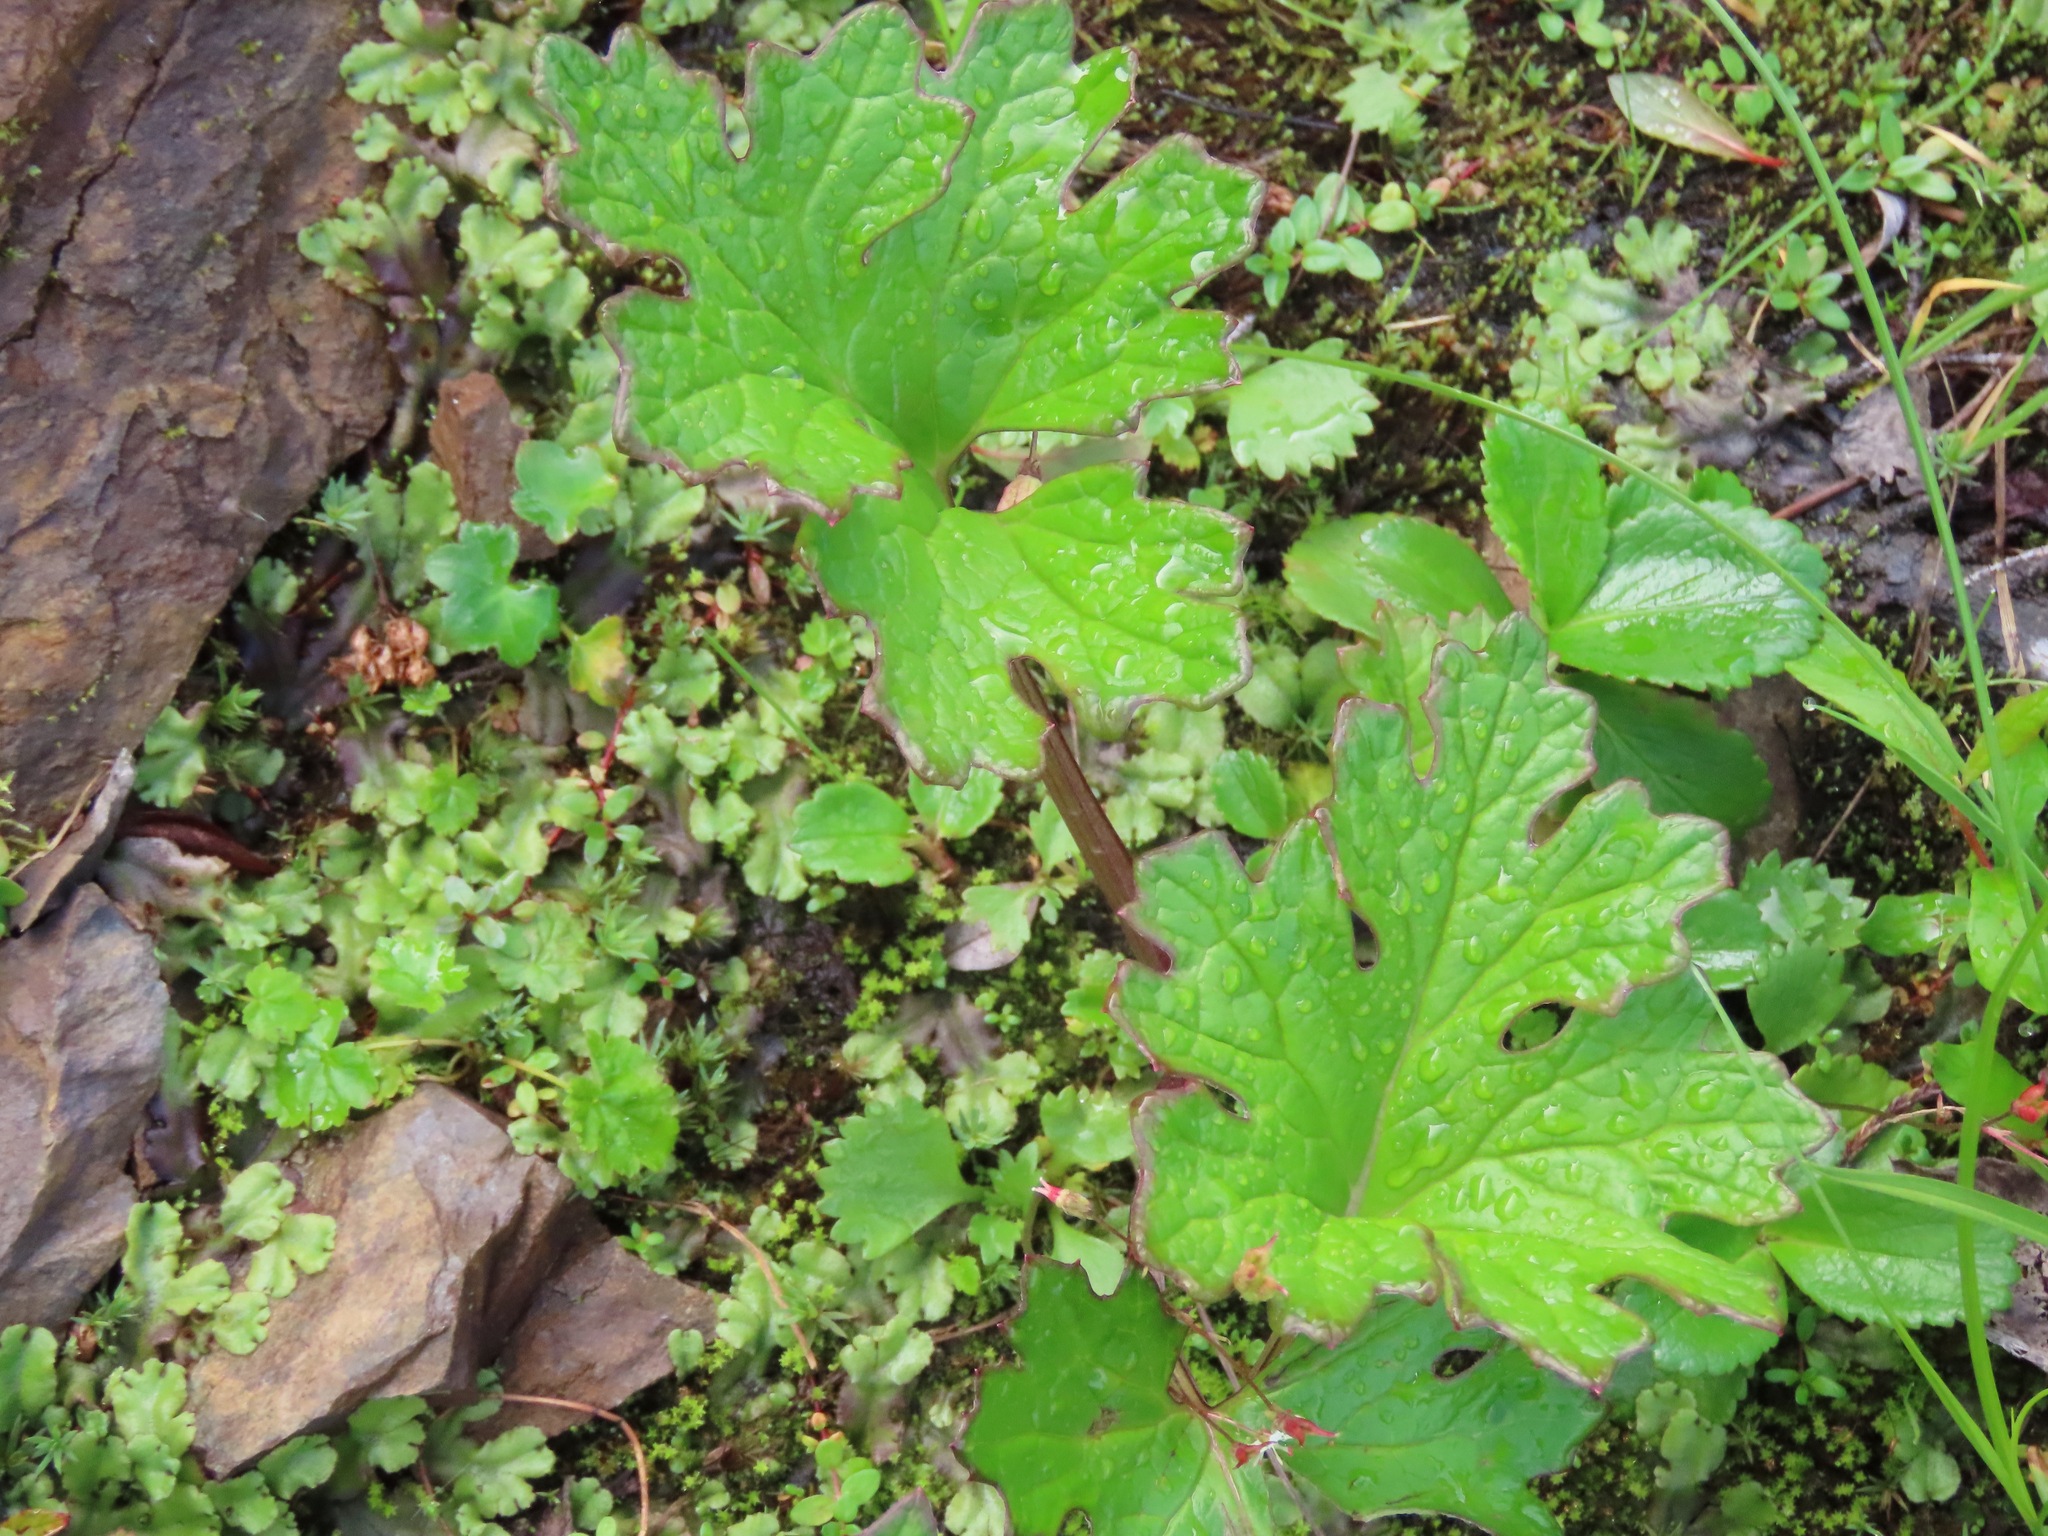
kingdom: Plantae
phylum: Tracheophyta
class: Magnoliopsida
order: Asterales
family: Asteraceae
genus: Petasites
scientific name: Petasites frigidus
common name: Arctic butterbur
